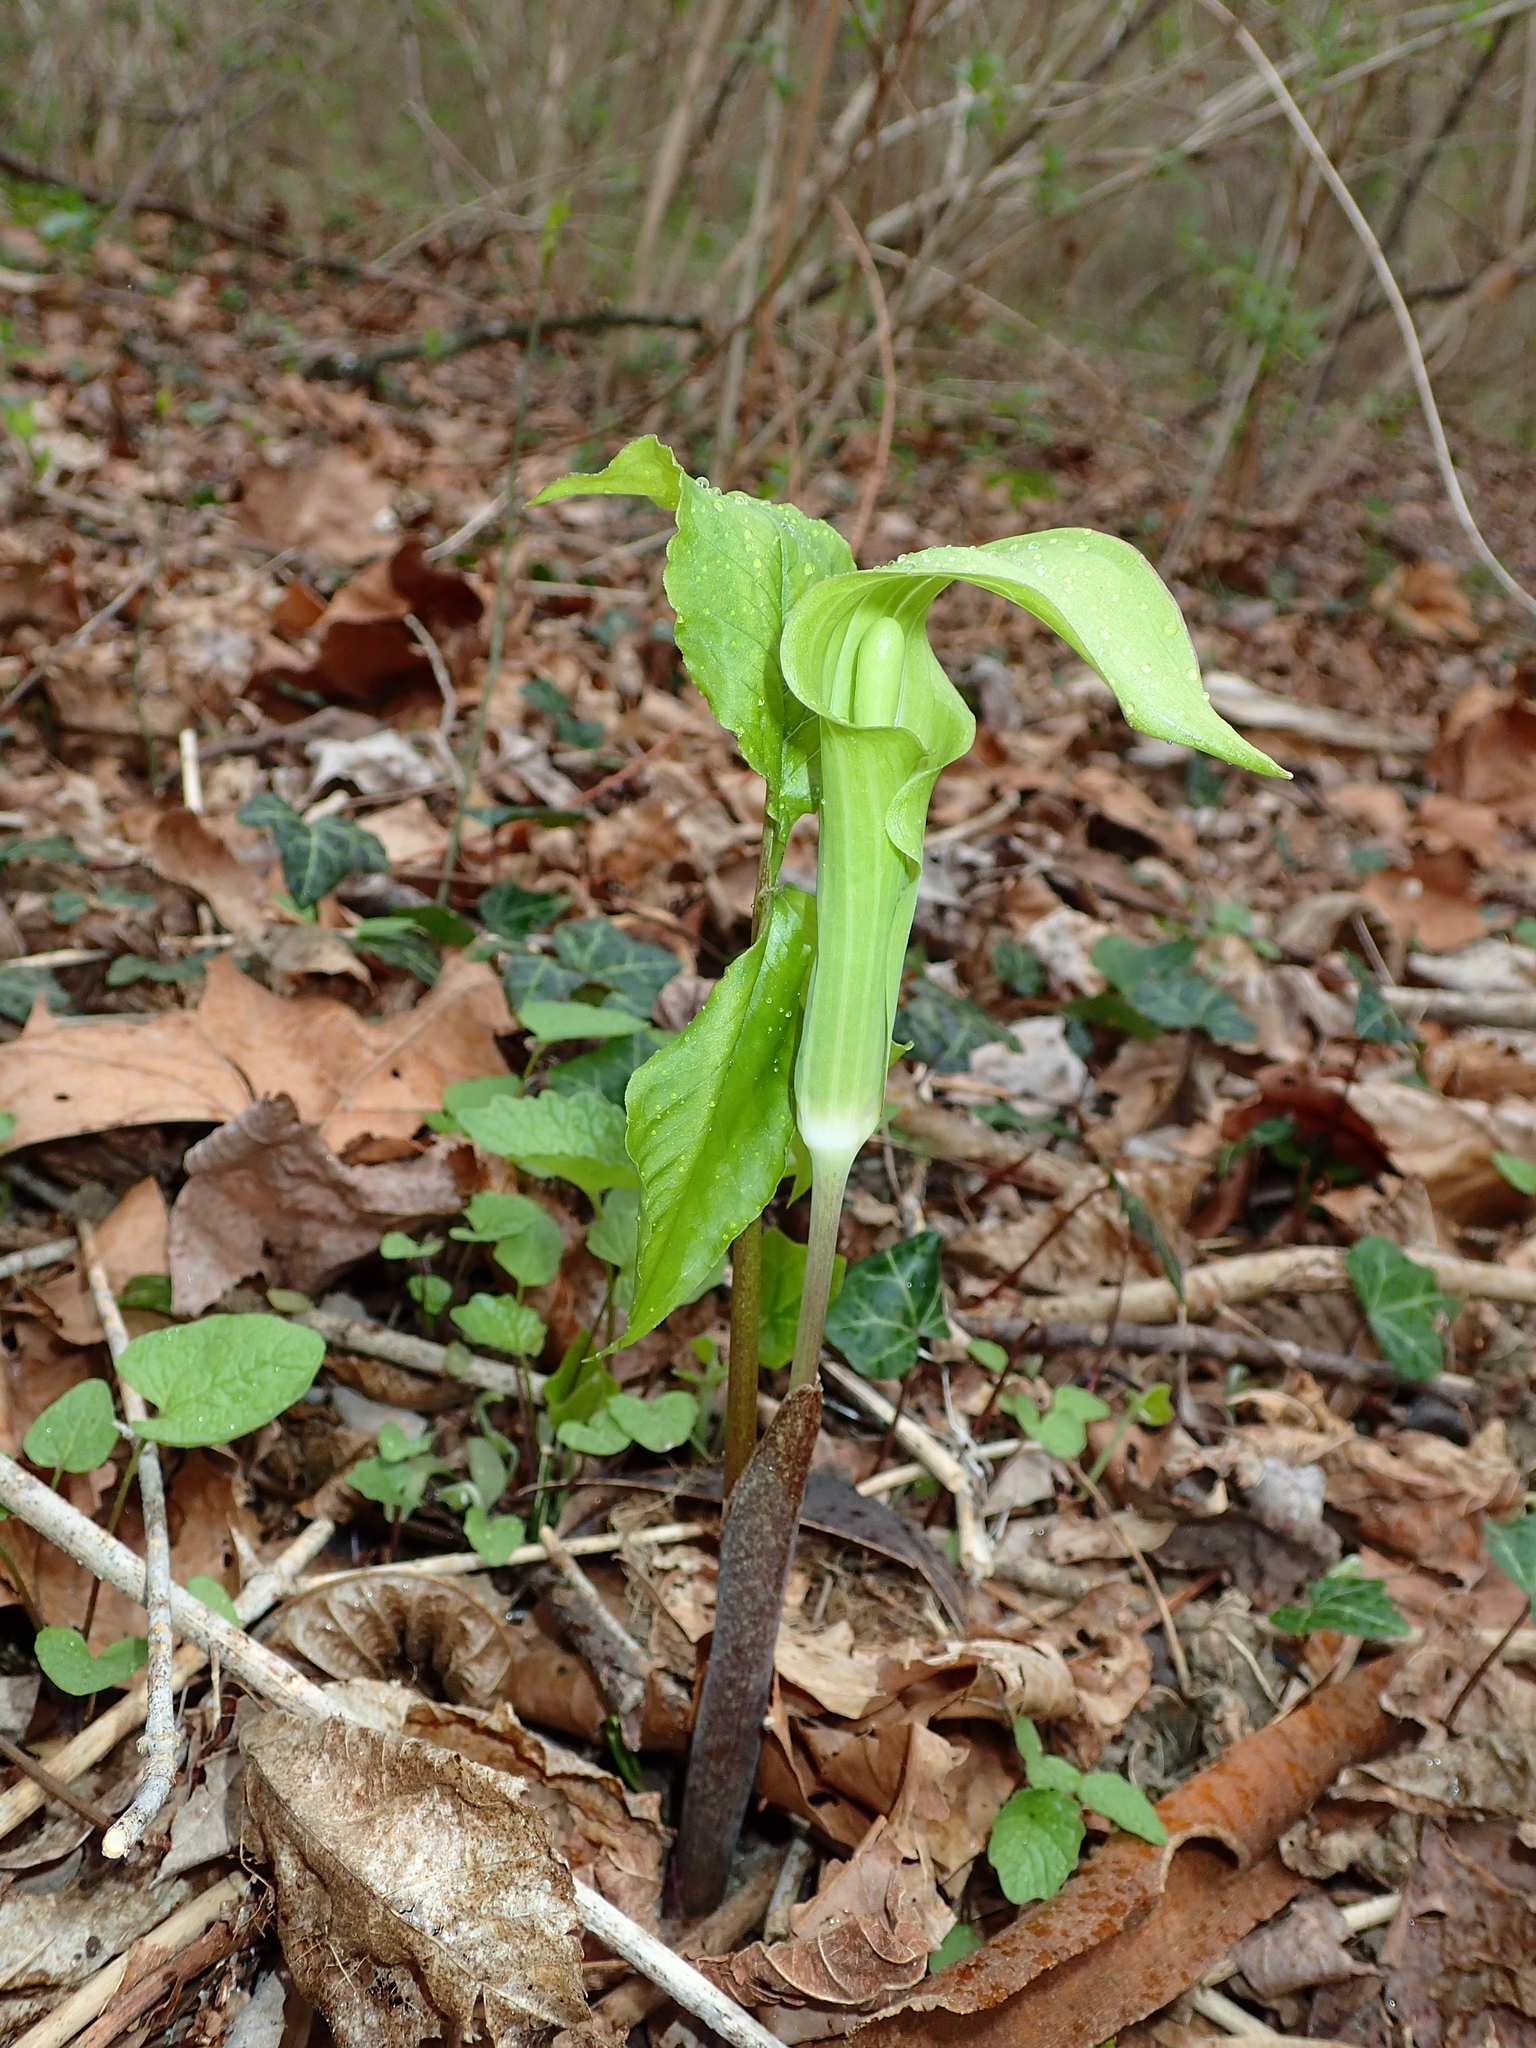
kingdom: Plantae
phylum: Tracheophyta
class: Liliopsida
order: Alismatales
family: Araceae
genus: Arisaema
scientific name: Arisaema triphyllum
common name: Jack-in-the-pulpit
